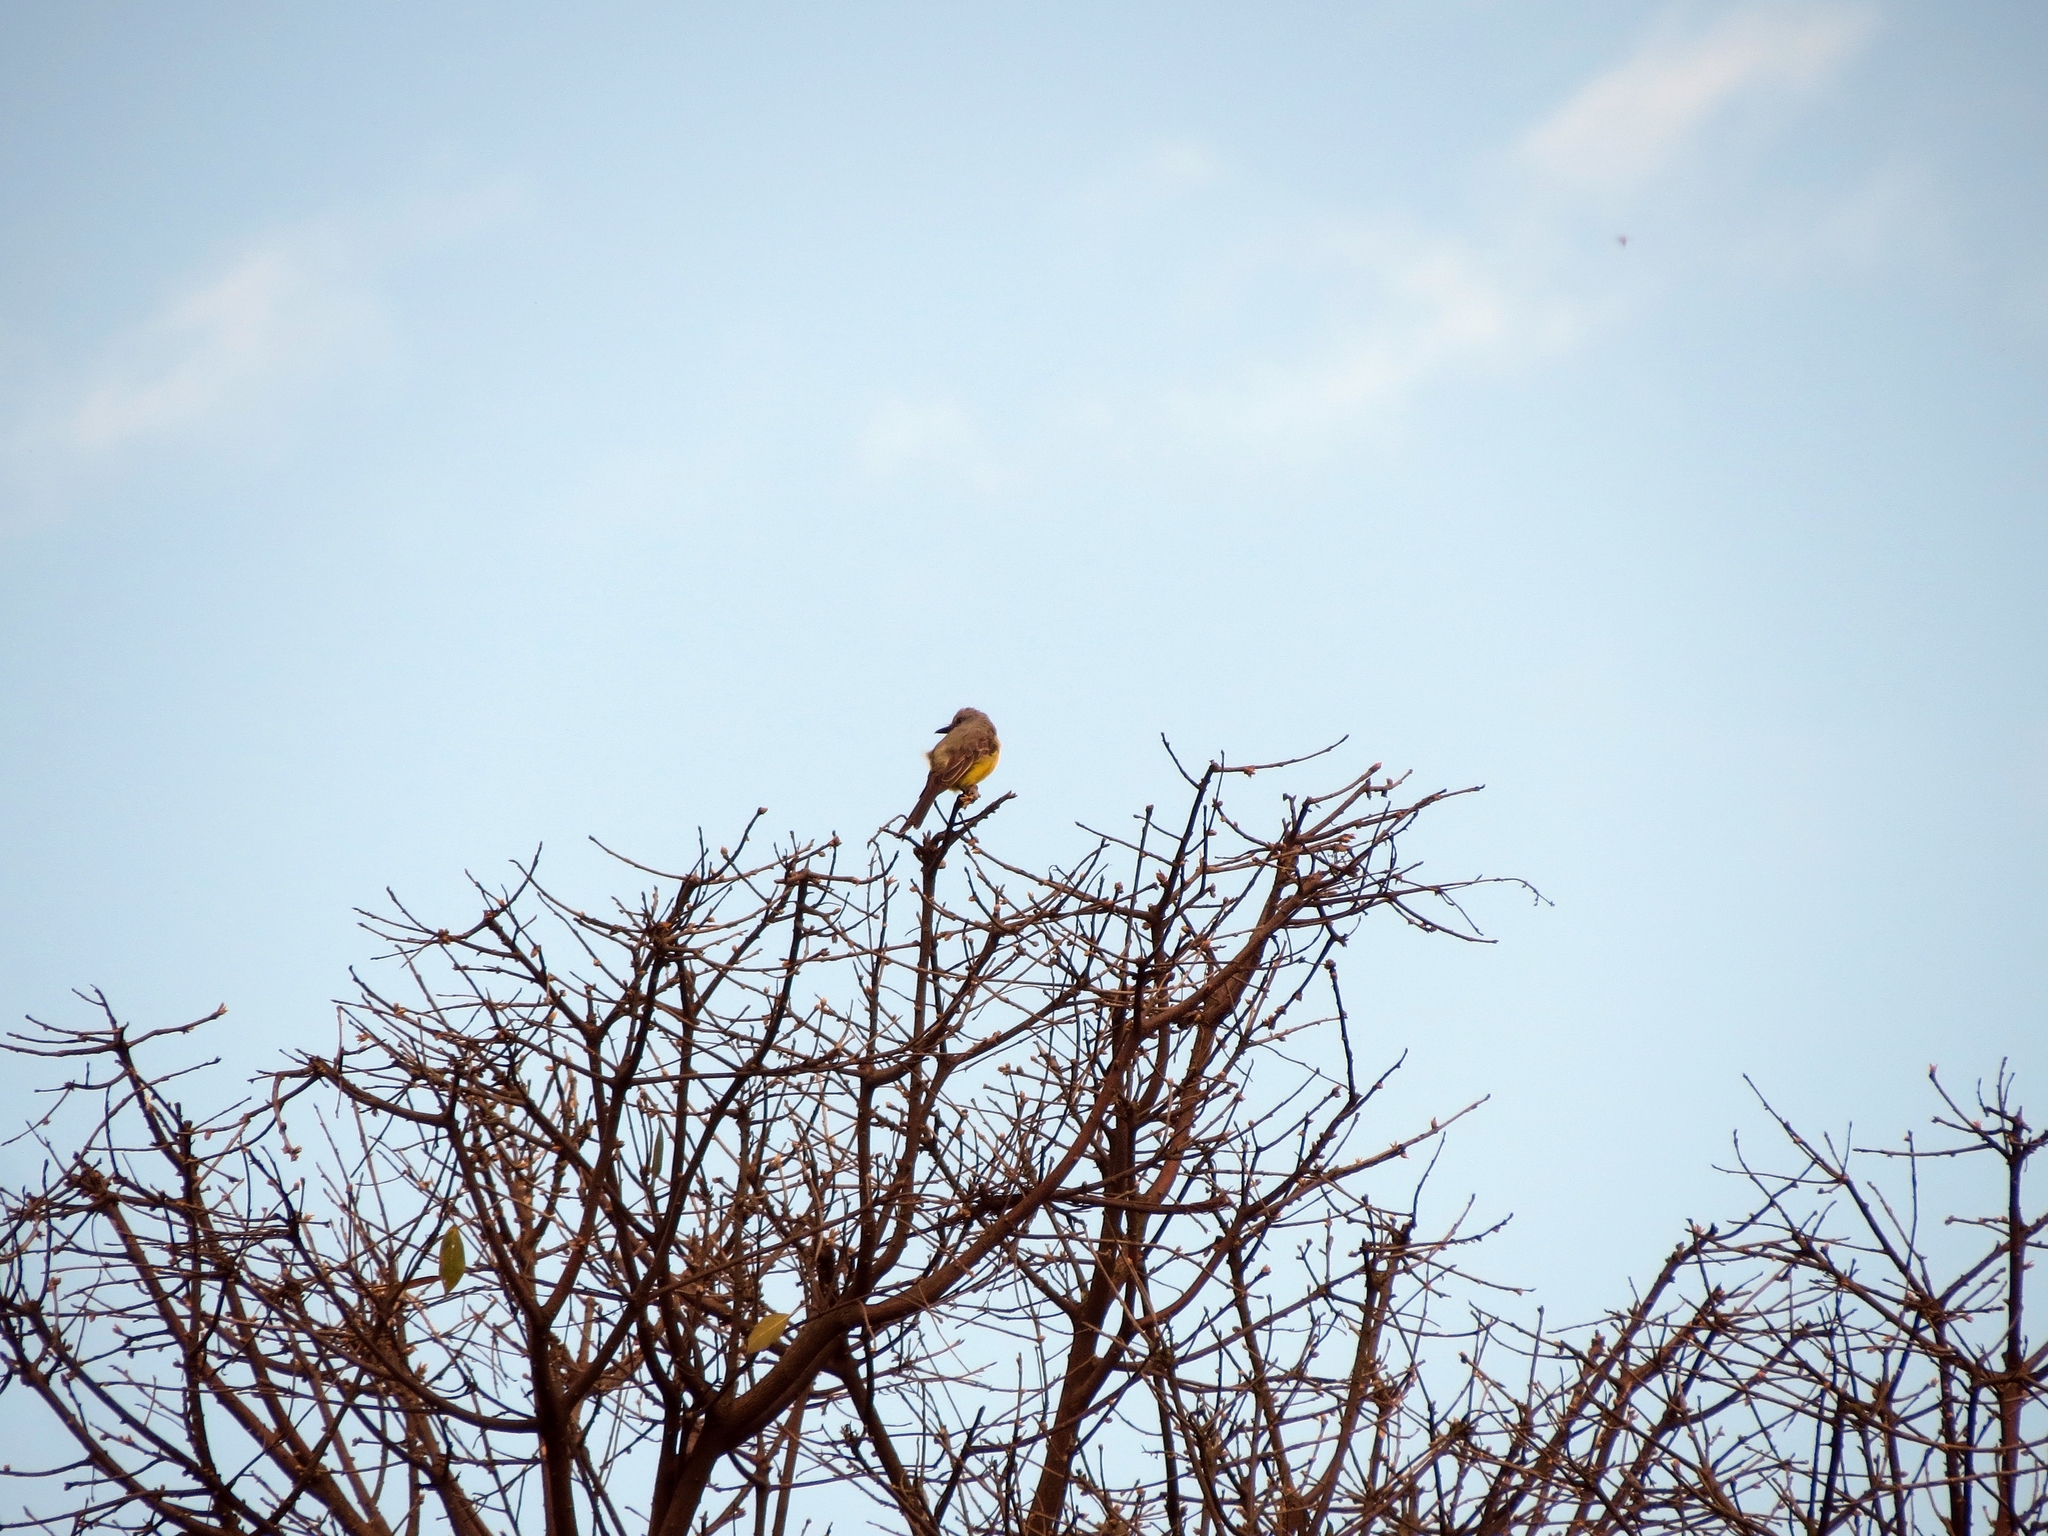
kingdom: Animalia
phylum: Chordata
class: Aves
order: Passeriformes
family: Tyrannidae
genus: Tyrannus
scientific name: Tyrannus melancholicus
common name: Tropical kingbird
